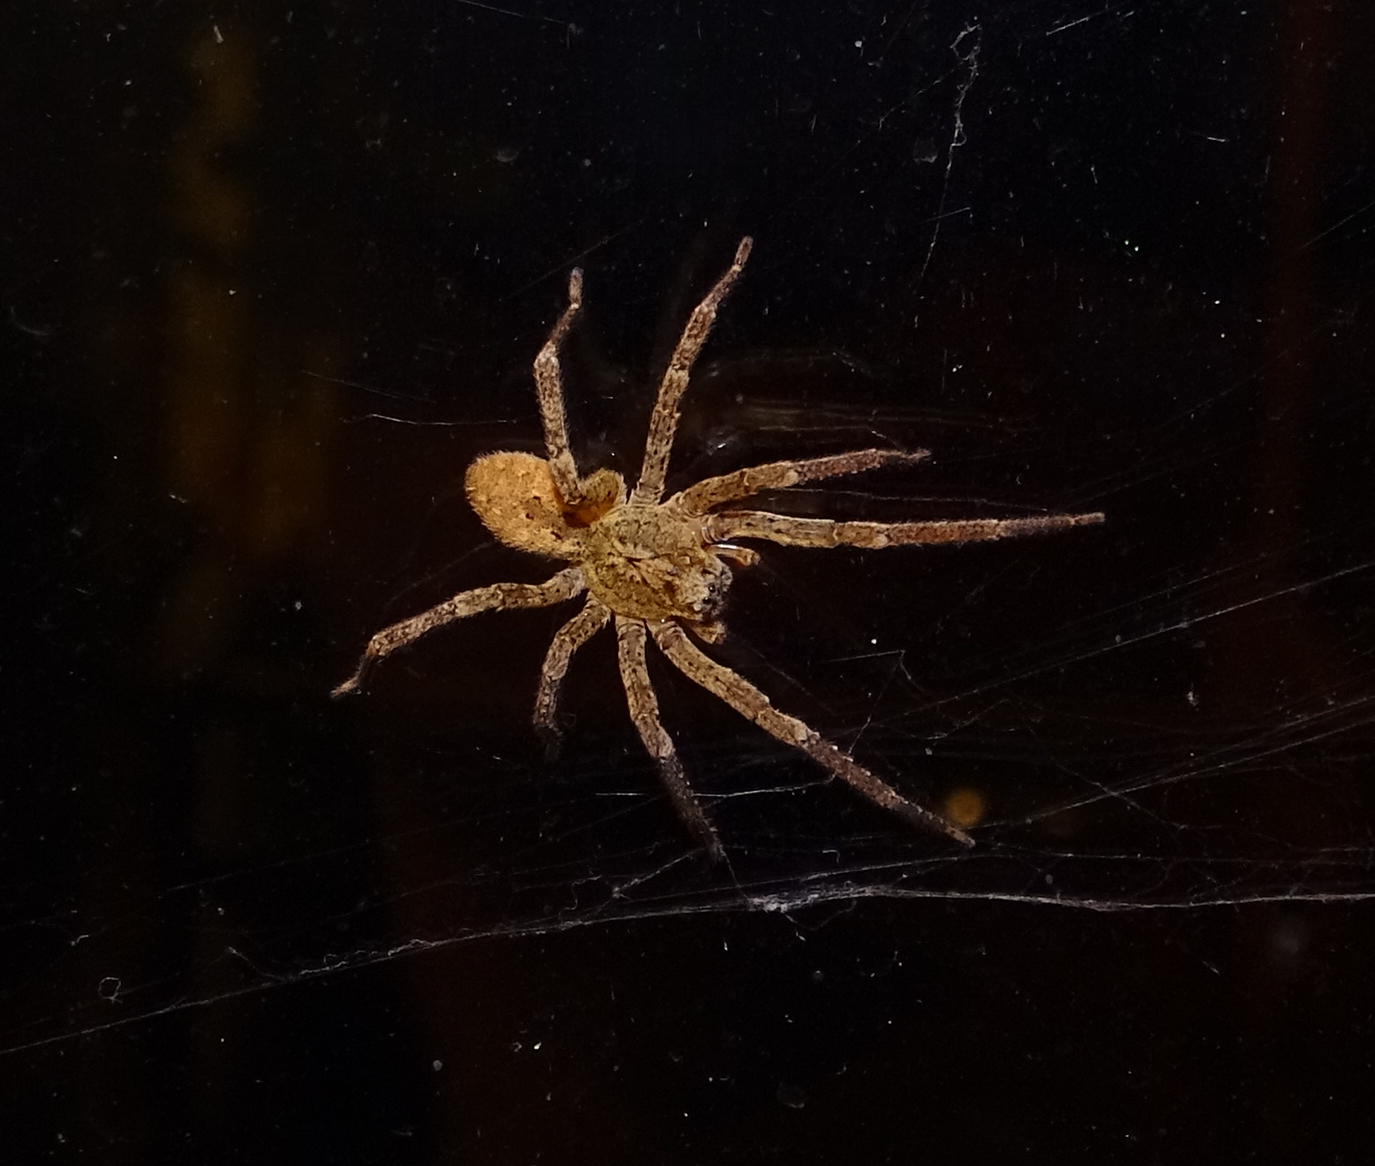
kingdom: Animalia
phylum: Arthropoda
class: Arachnida
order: Araneae
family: Zoropsidae
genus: Zoropsis
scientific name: Zoropsis spinimana
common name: Zoropsid spider
